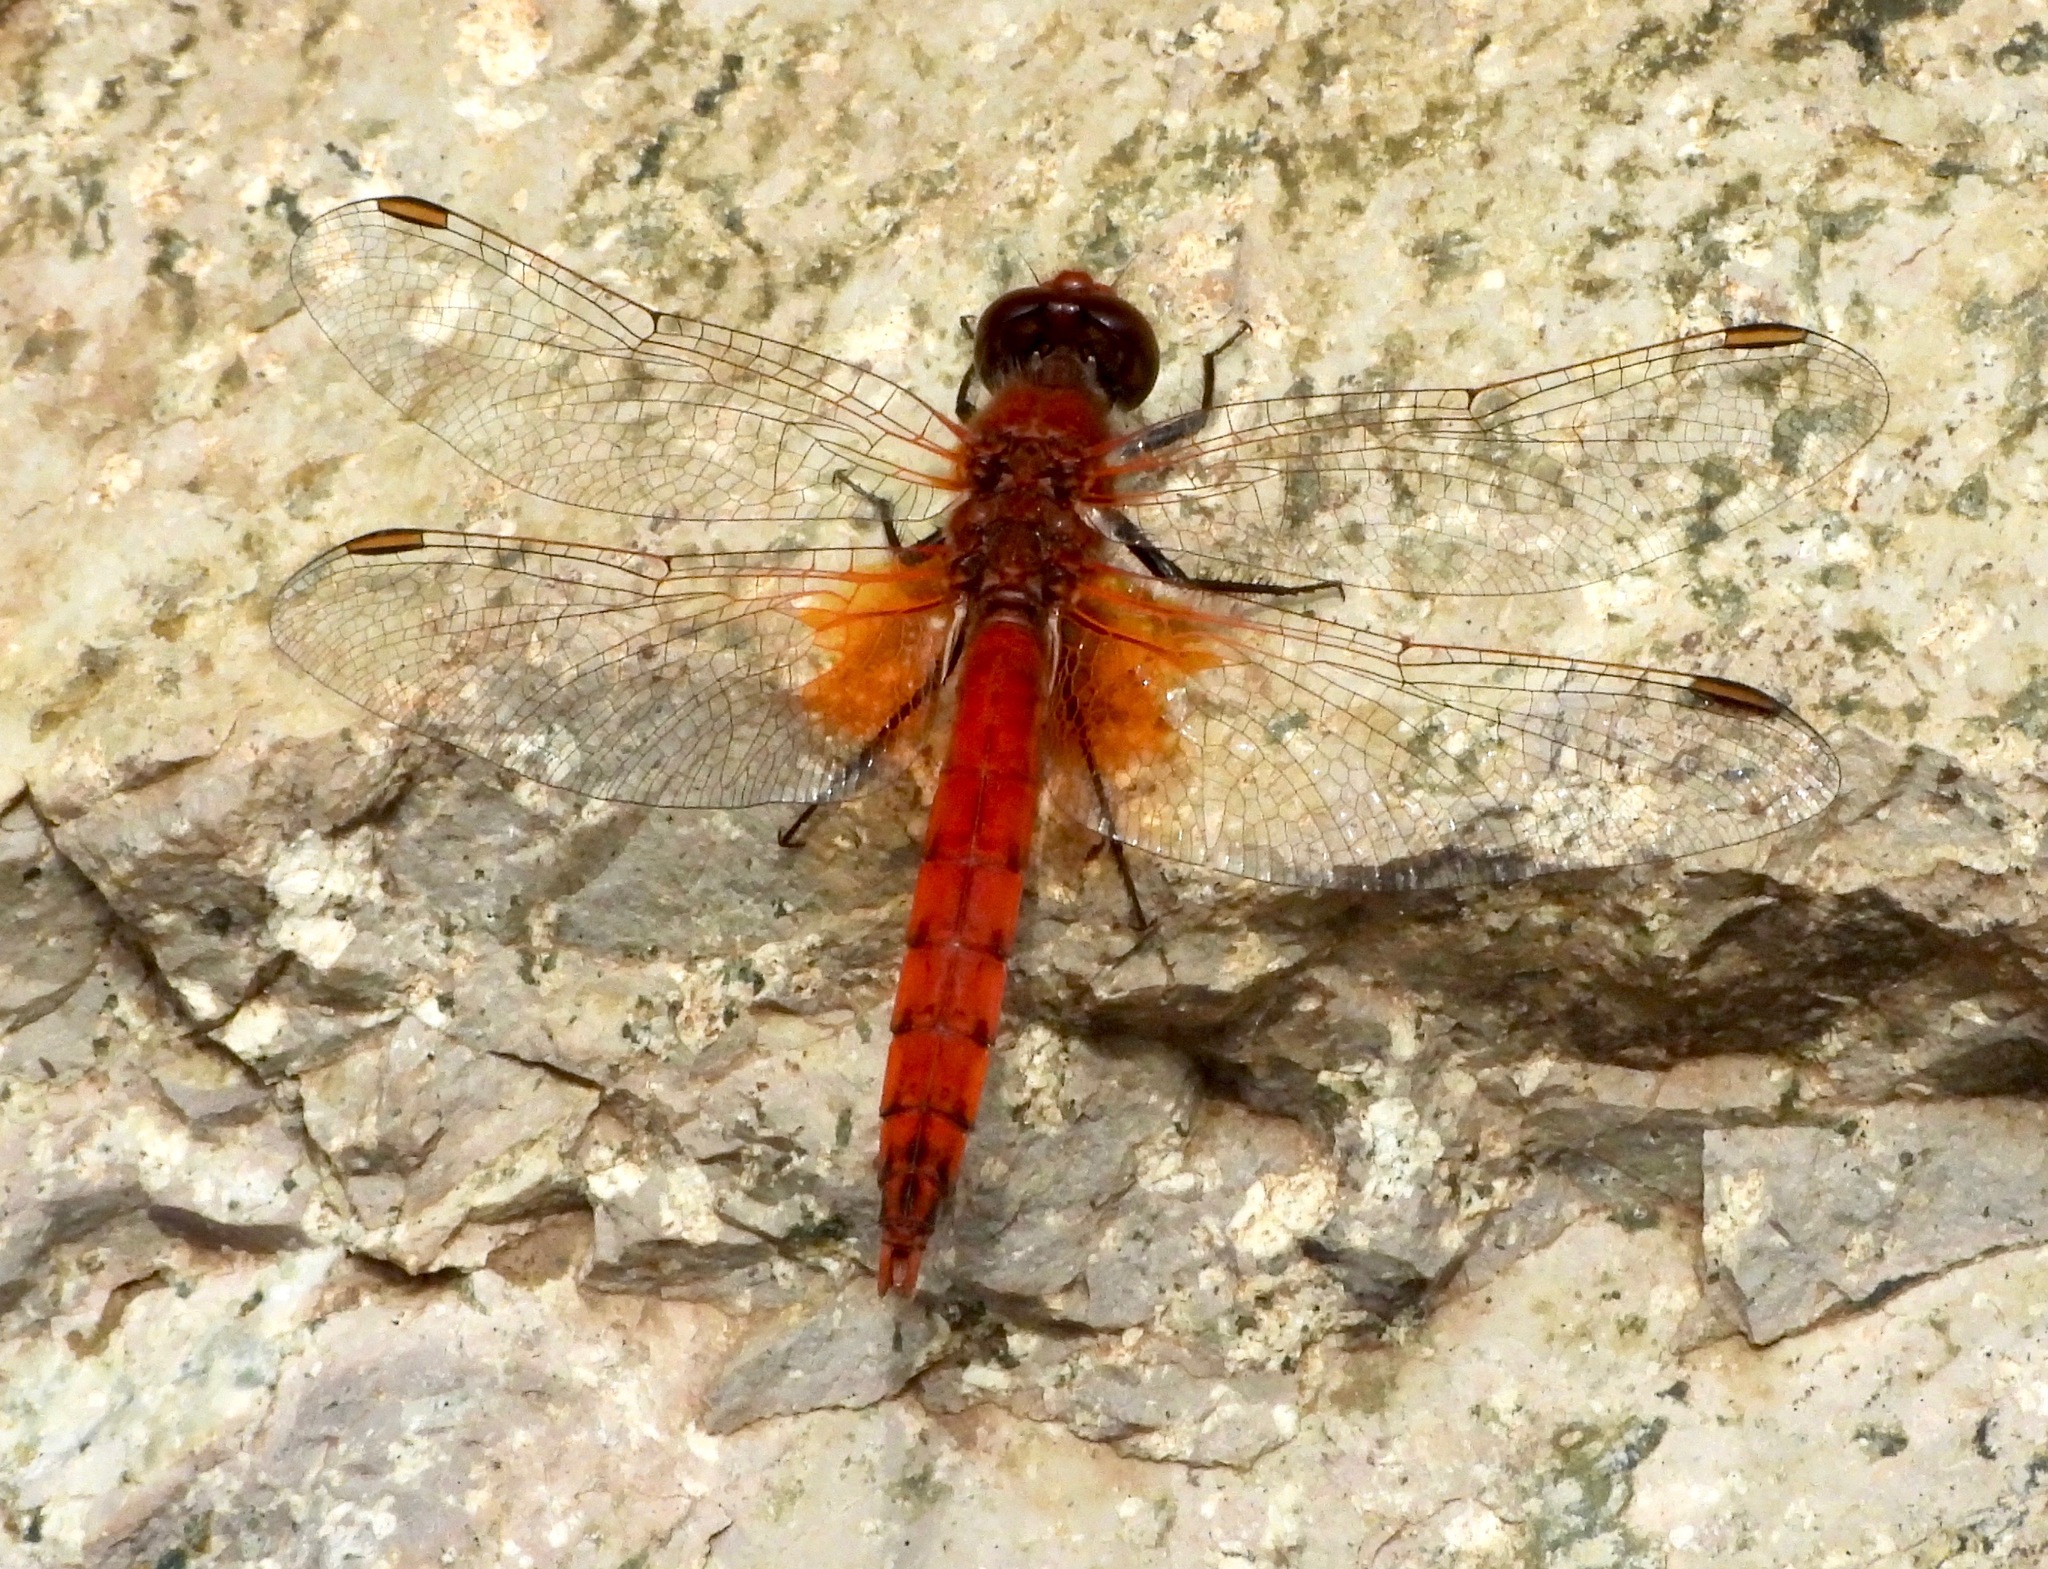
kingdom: Animalia
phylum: Arthropoda
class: Insecta
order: Odonata
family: Libellulidae
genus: Erythrodiplax
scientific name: Erythrodiplax corallina
